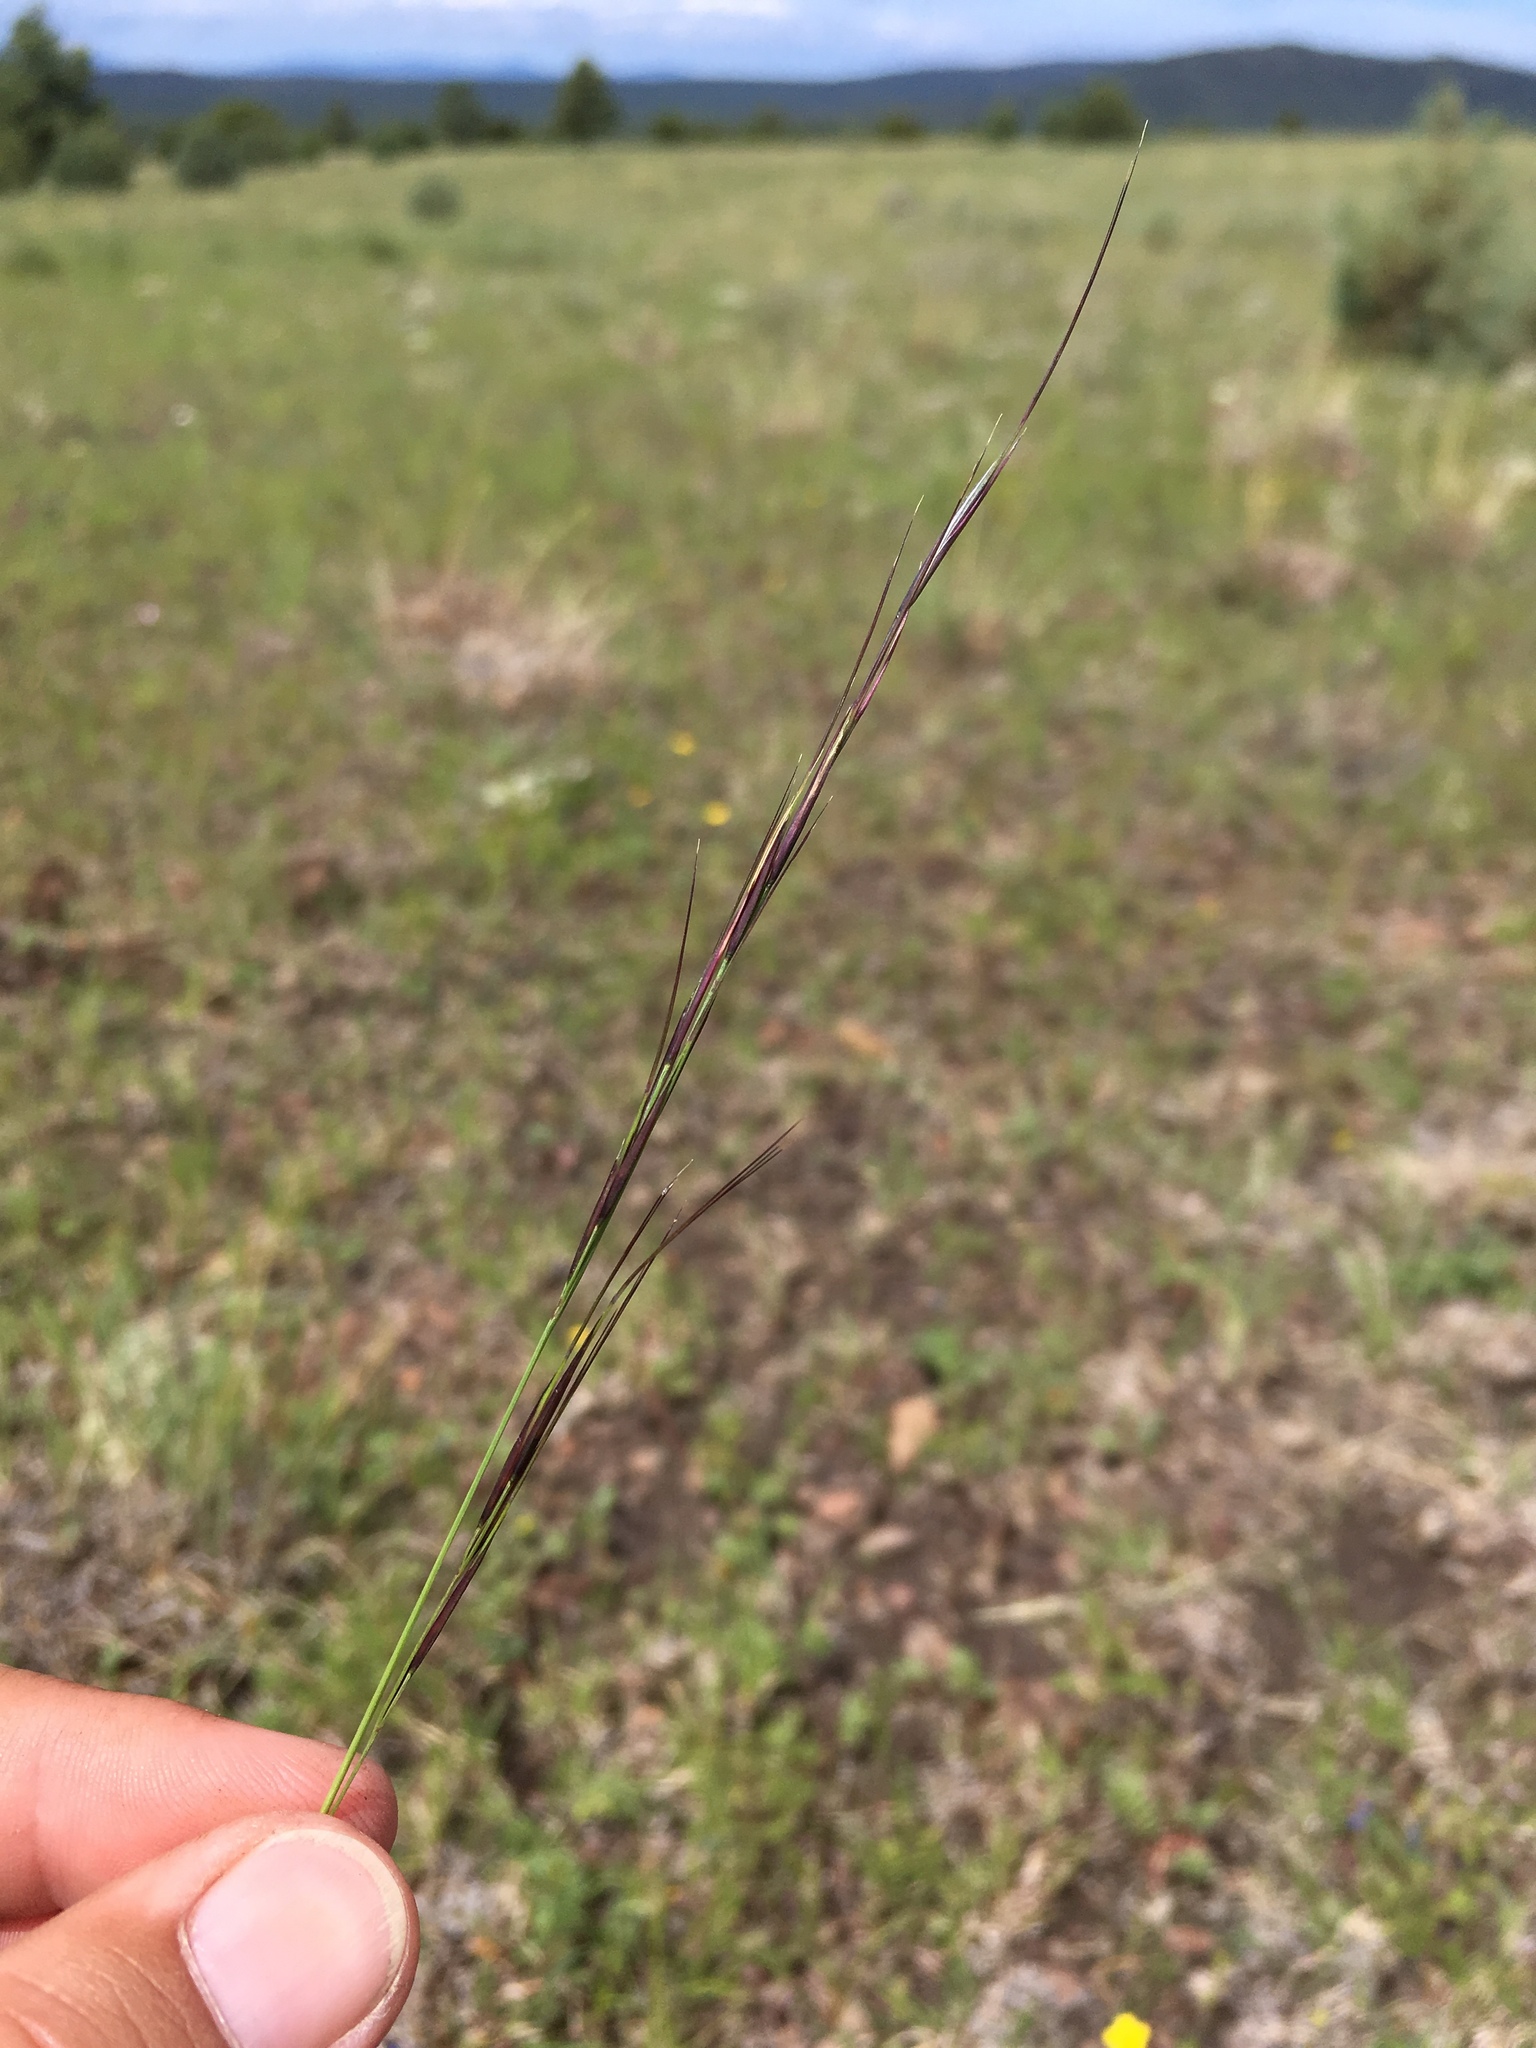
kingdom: Plantae
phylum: Tracheophyta
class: Liliopsida
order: Poales
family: Poaceae
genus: Aristida
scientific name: Aristida arizonica
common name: Arizona threeawn
